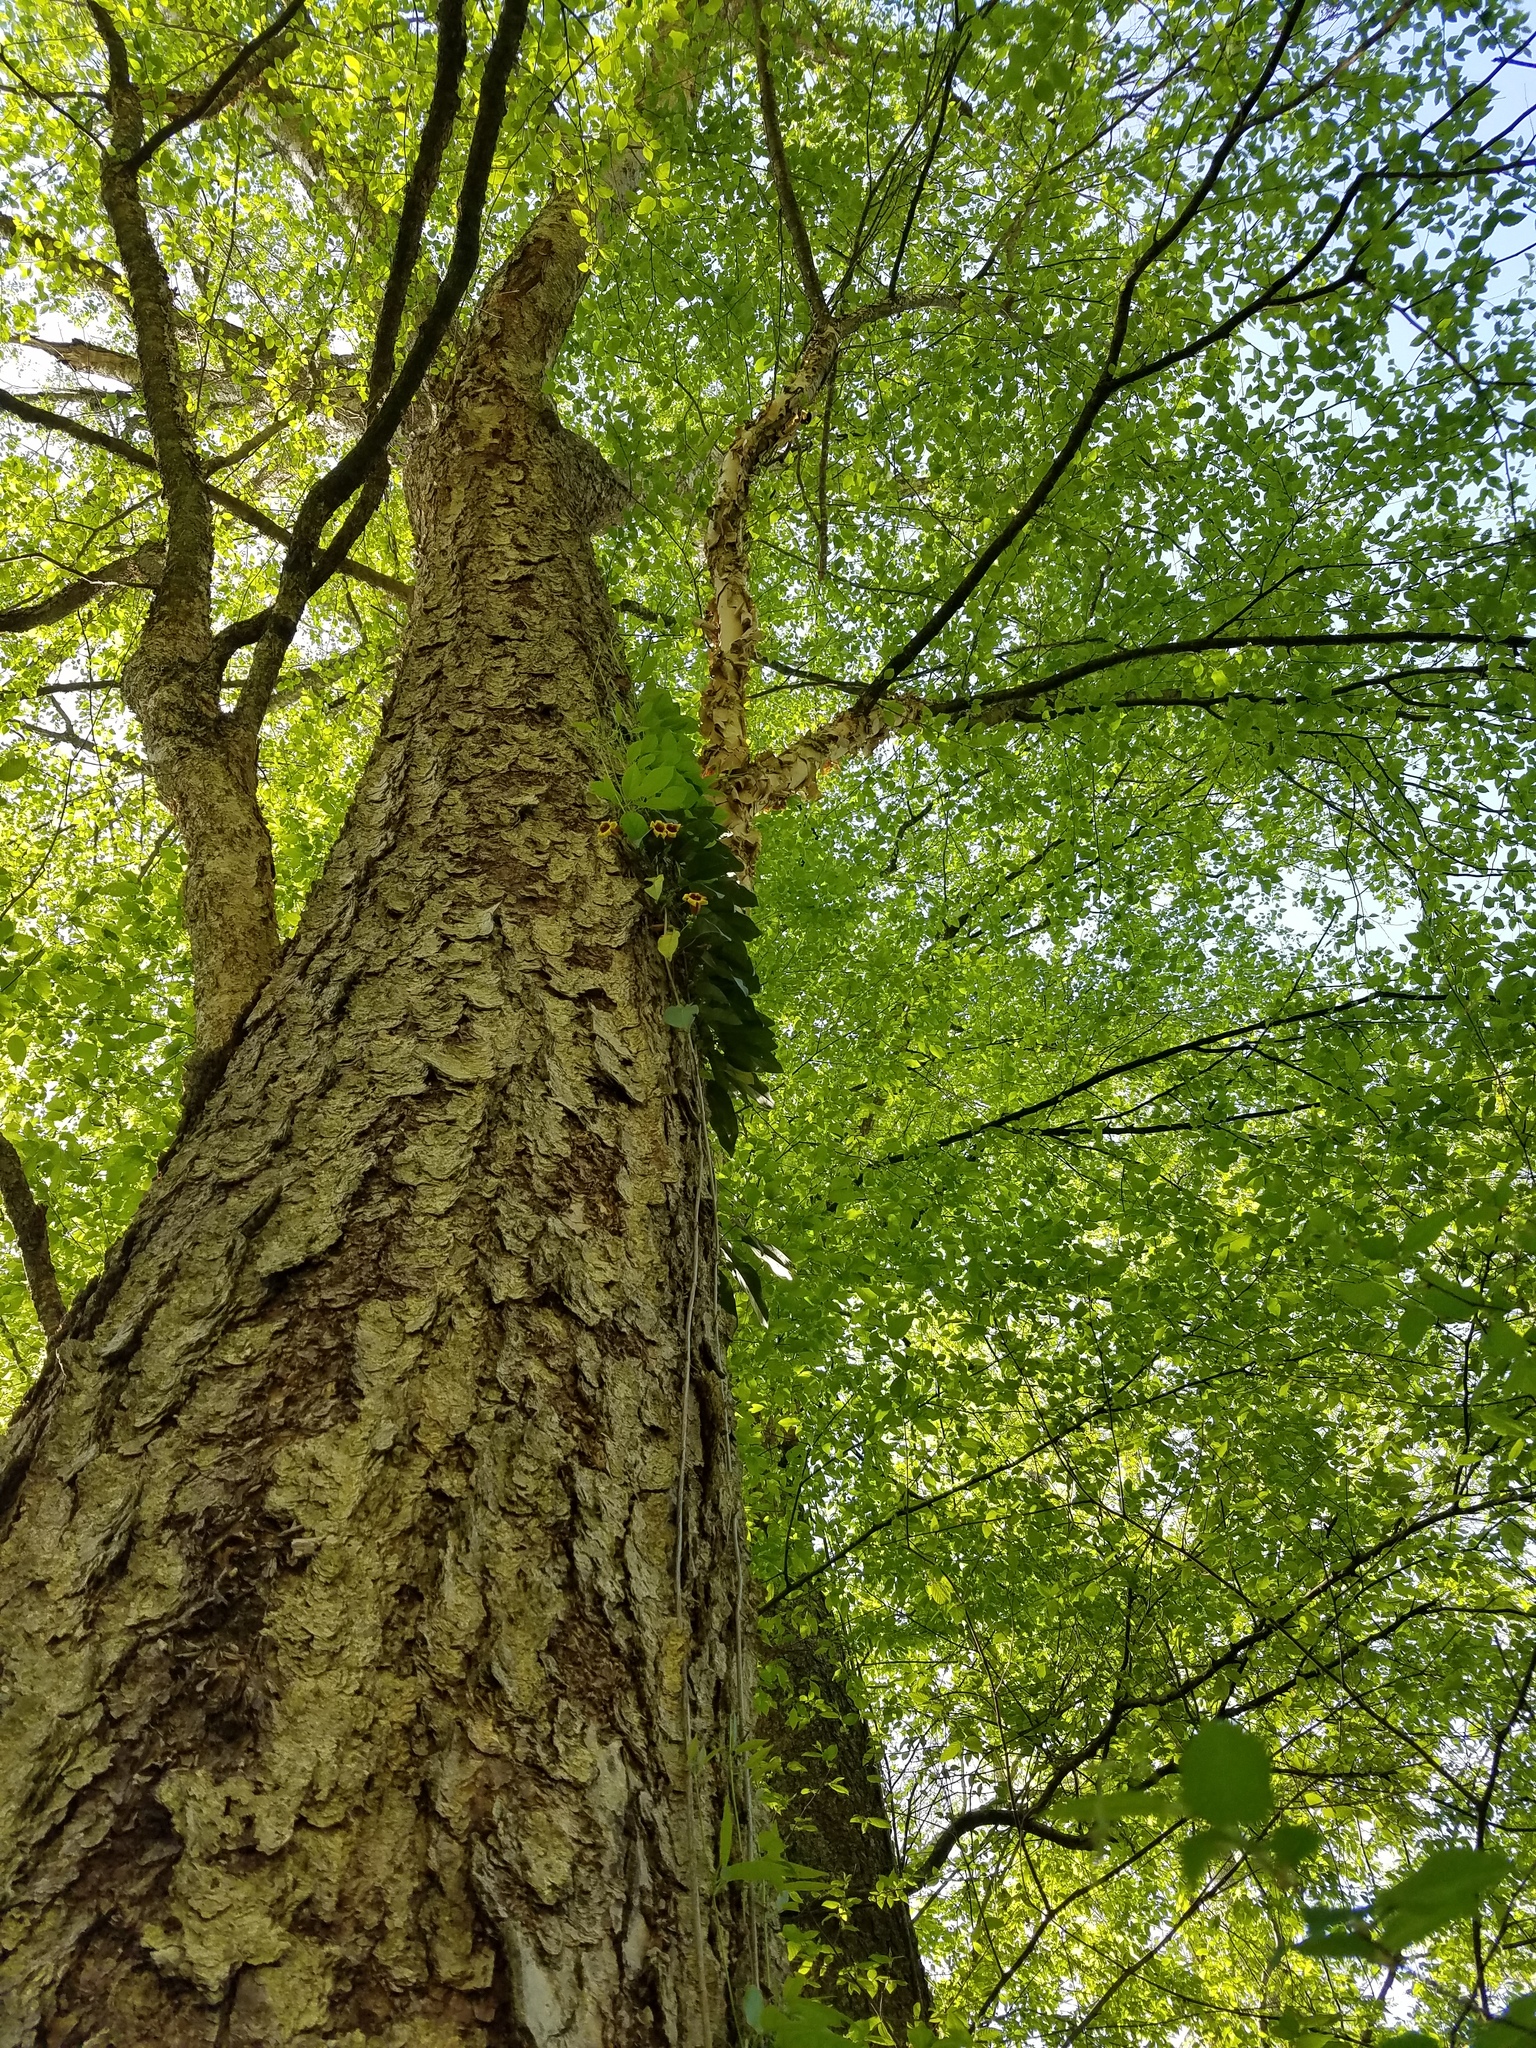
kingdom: Plantae
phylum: Tracheophyta
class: Magnoliopsida
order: Fagales
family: Betulaceae
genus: Betula
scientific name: Betula nigra
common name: Black birch
